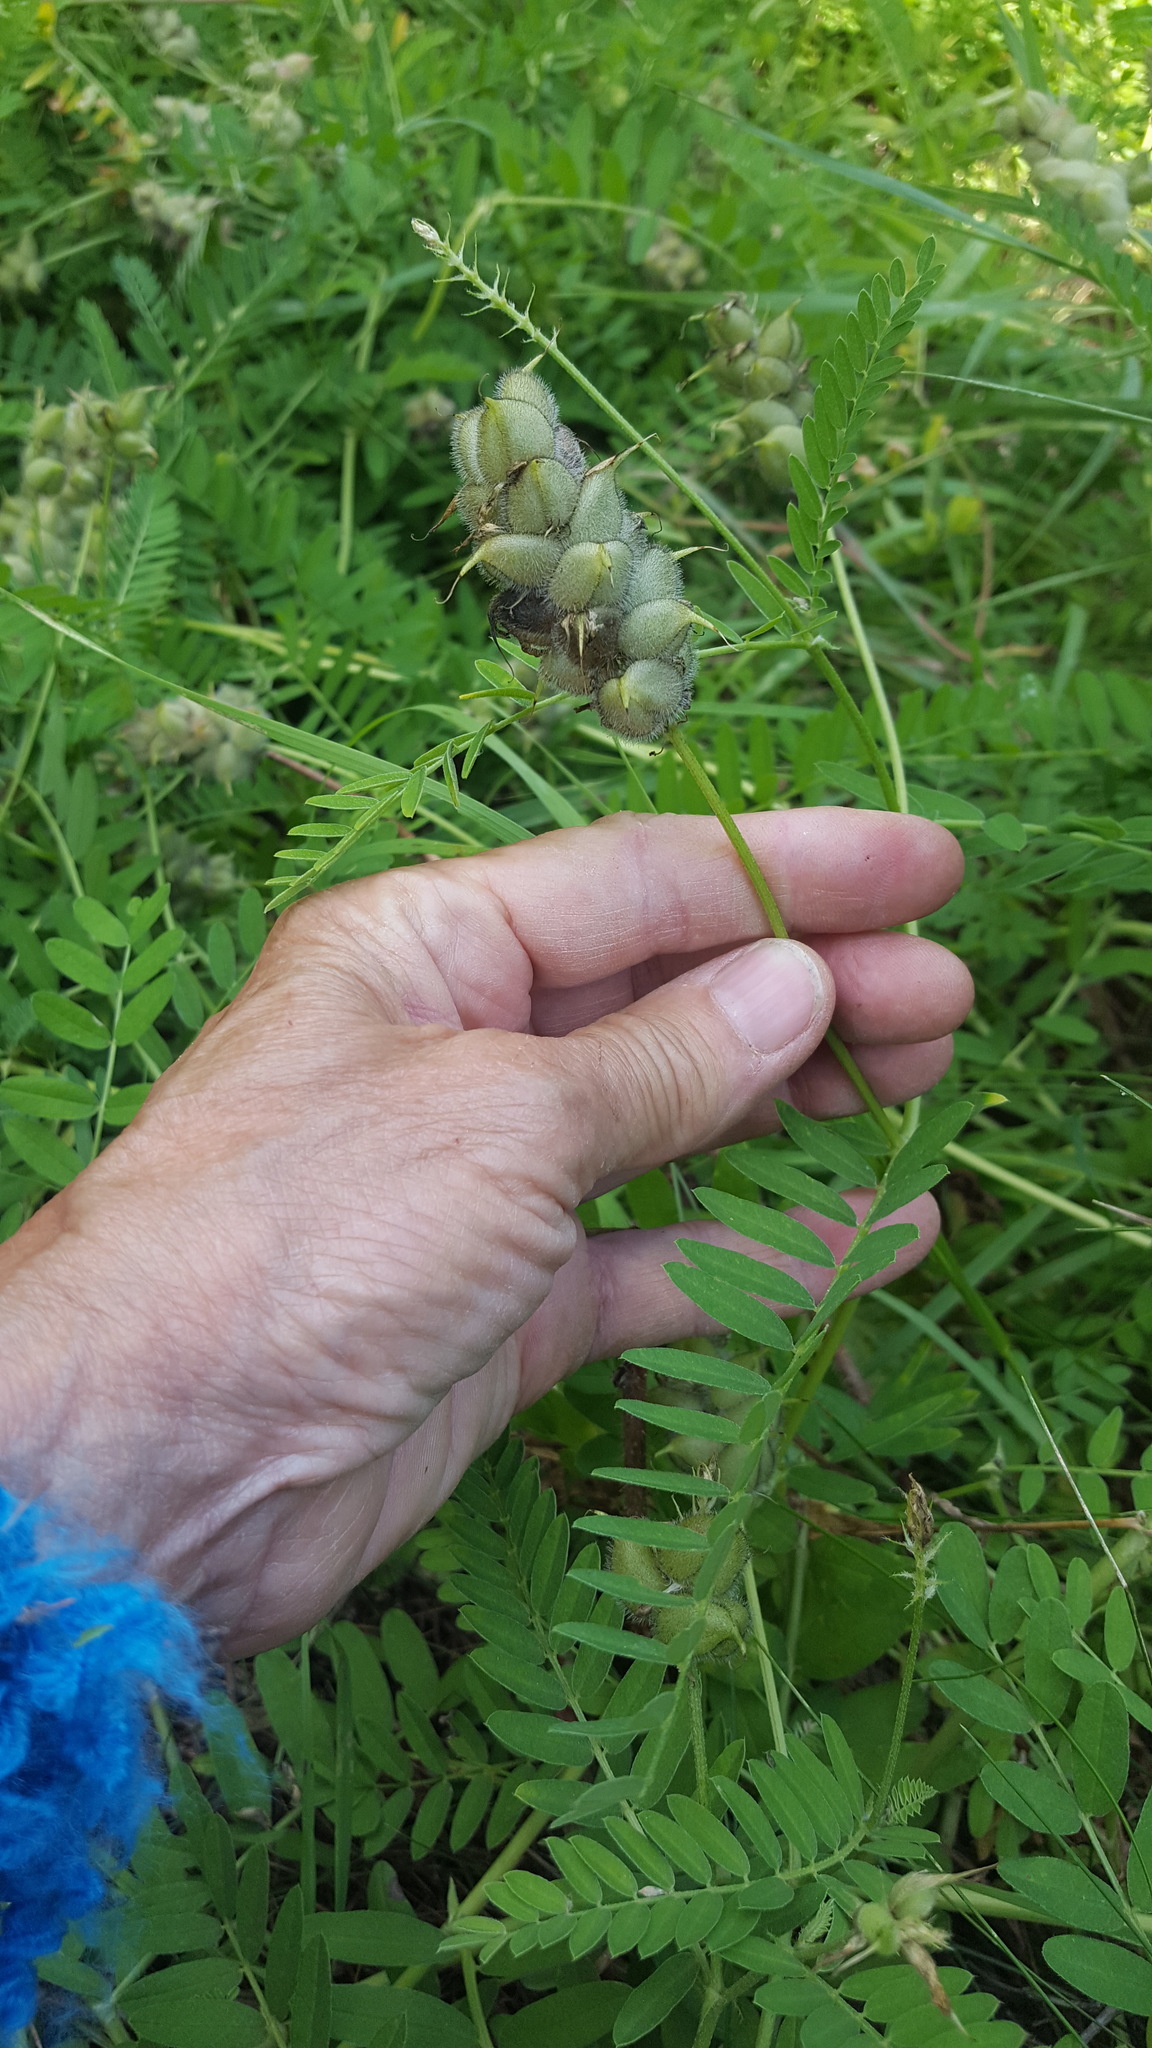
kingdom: Plantae
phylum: Tracheophyta
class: Magnoliopsida
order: Fabales
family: Fabaceae
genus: Astragalus
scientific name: Astragalus cicer
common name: Chick-pea milk-vetch
